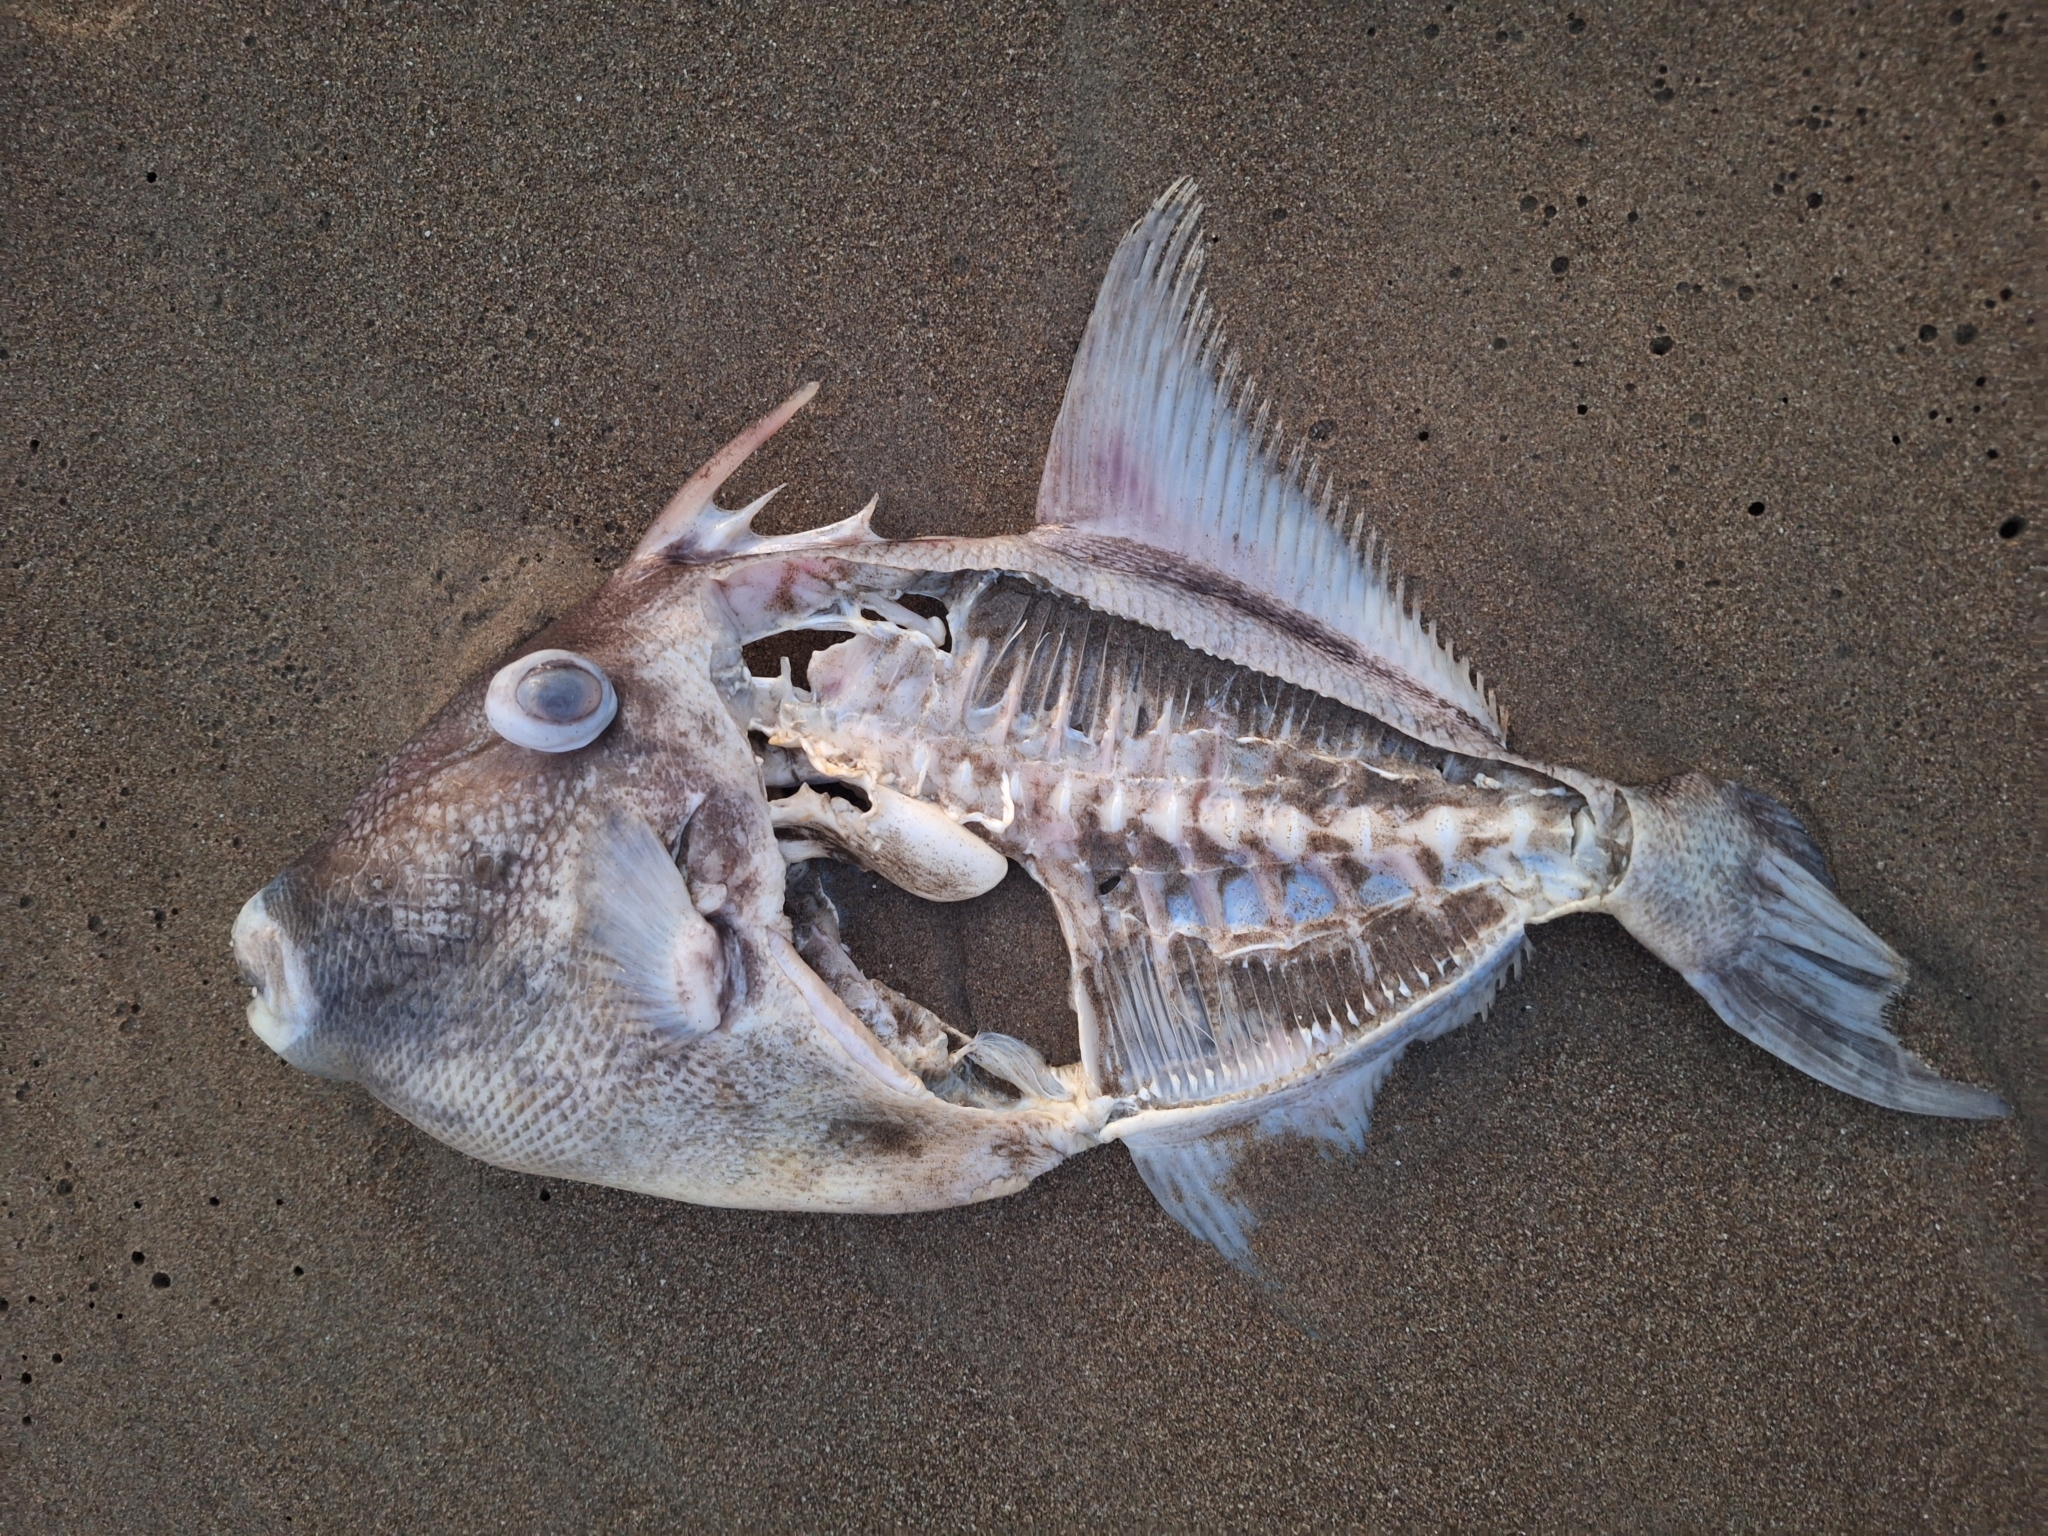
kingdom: Animalia
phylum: Chordata
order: Tetraodontiformes
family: Balistidae
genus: Balistes
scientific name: Balistes polylepis
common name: Finescale triggerfish
